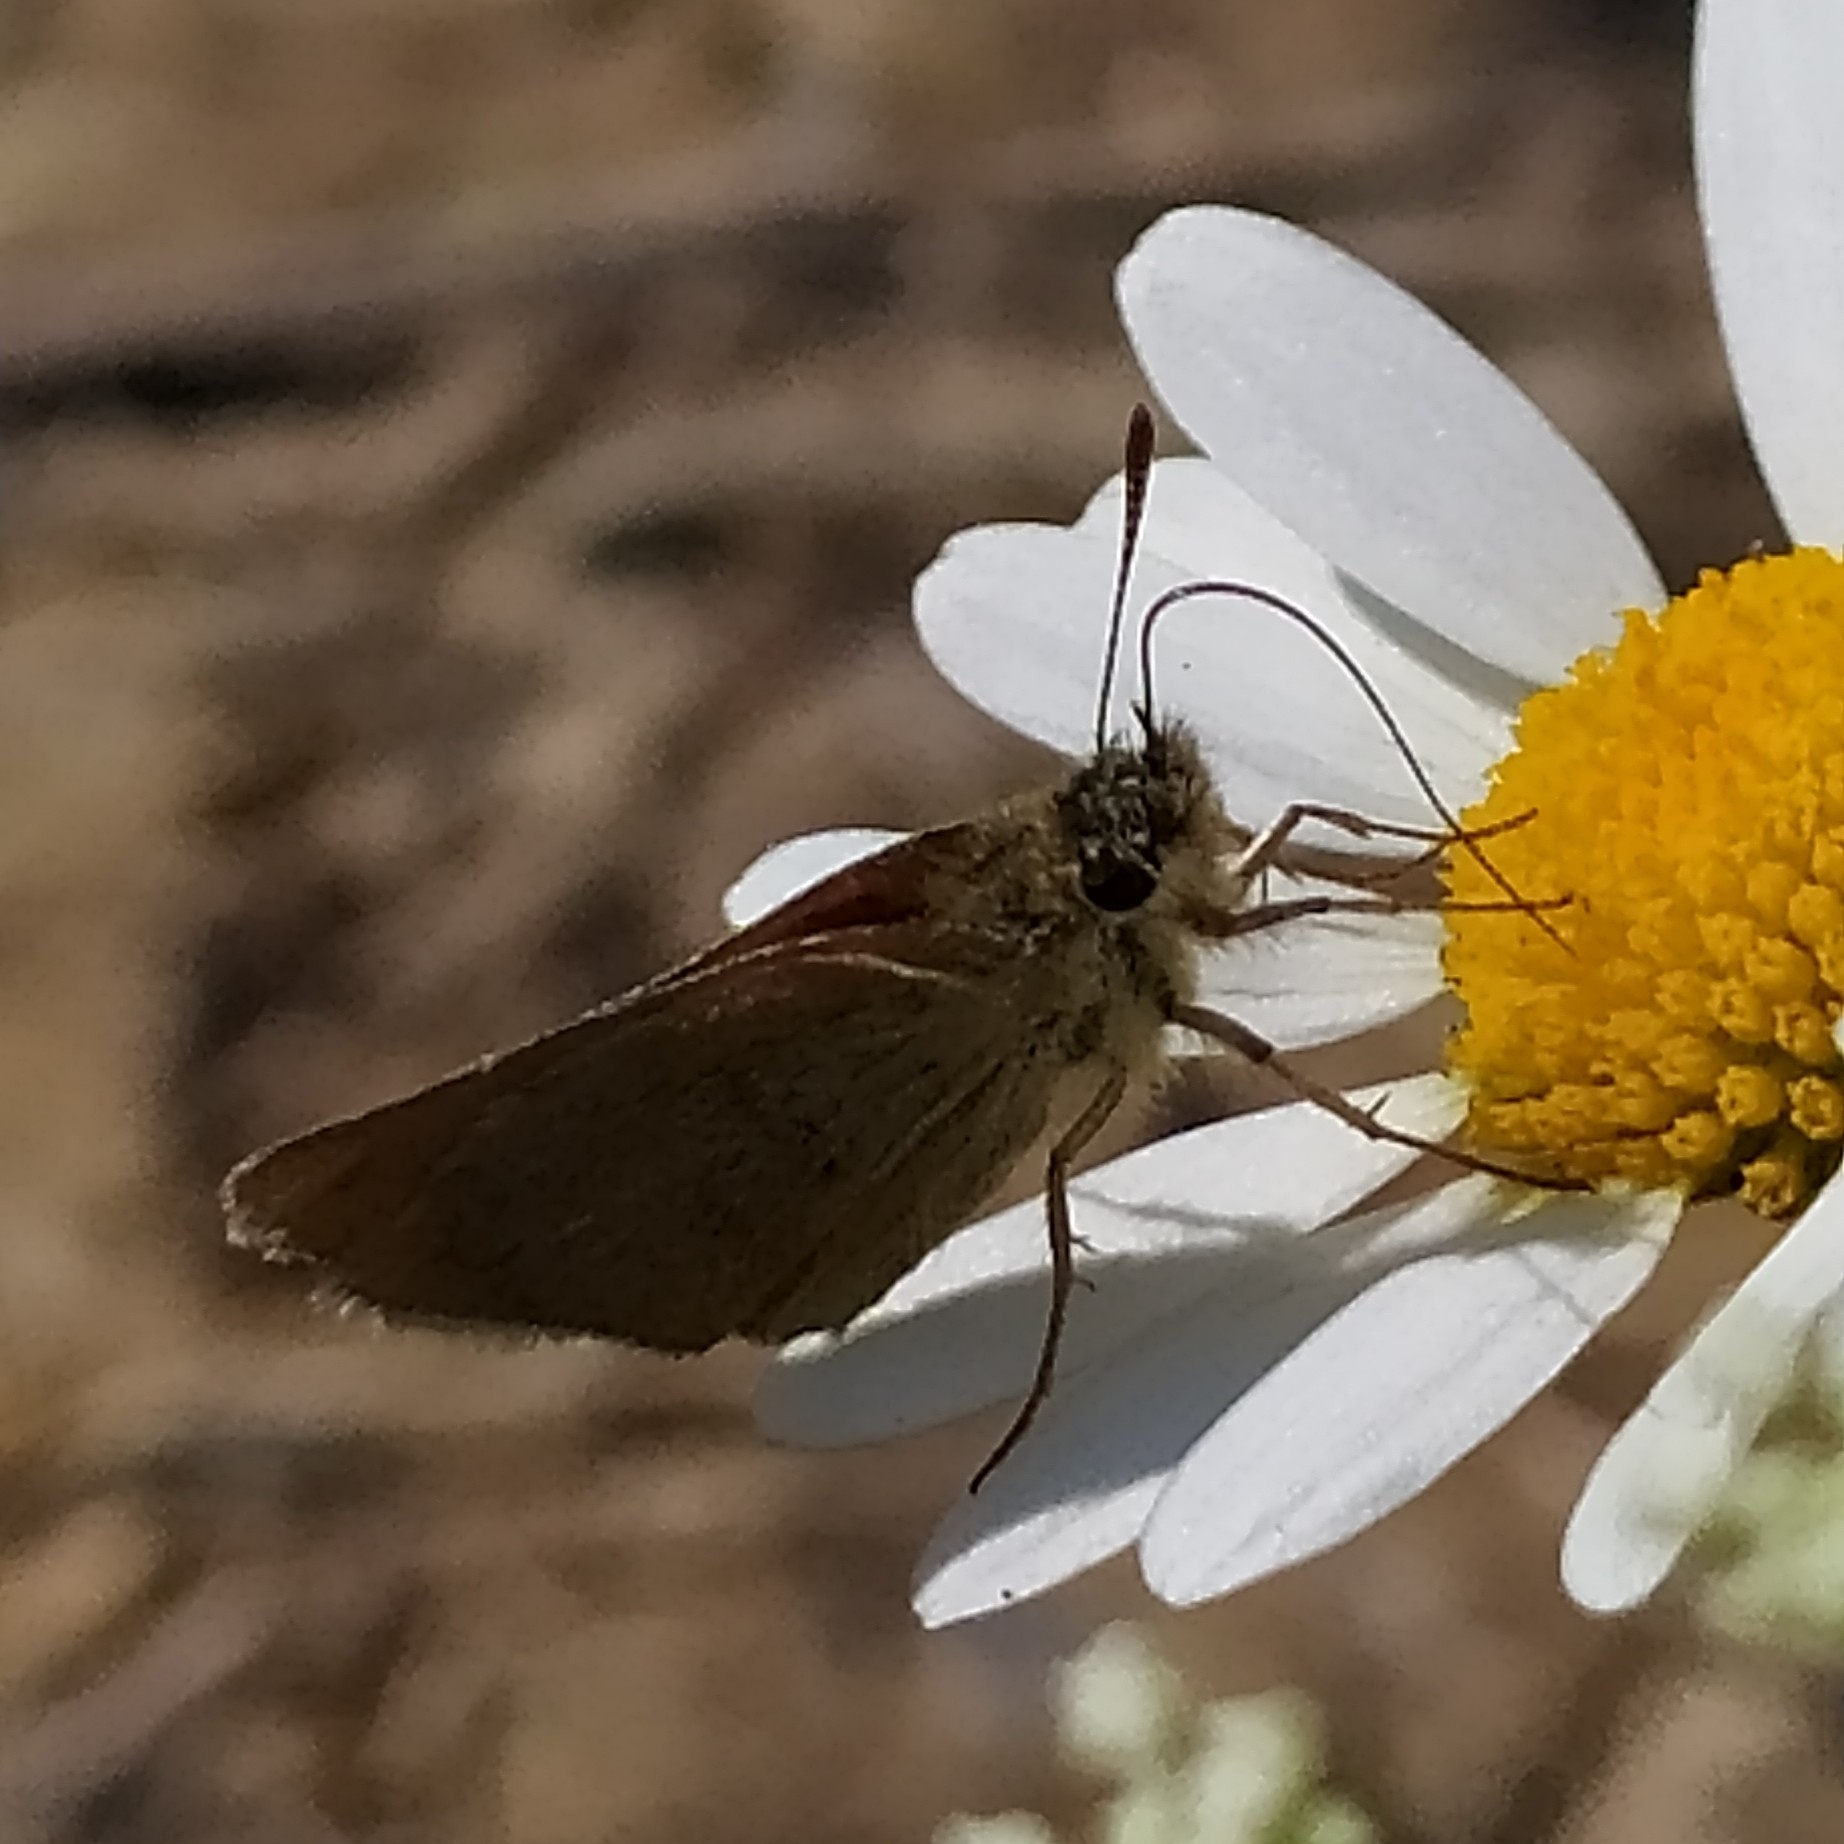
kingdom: Animalia
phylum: Arthropoda
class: Insecta
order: Lepidoptera
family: Hesperiidae
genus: Thymelicus
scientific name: Thymelicus lineola
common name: Essex skipper
